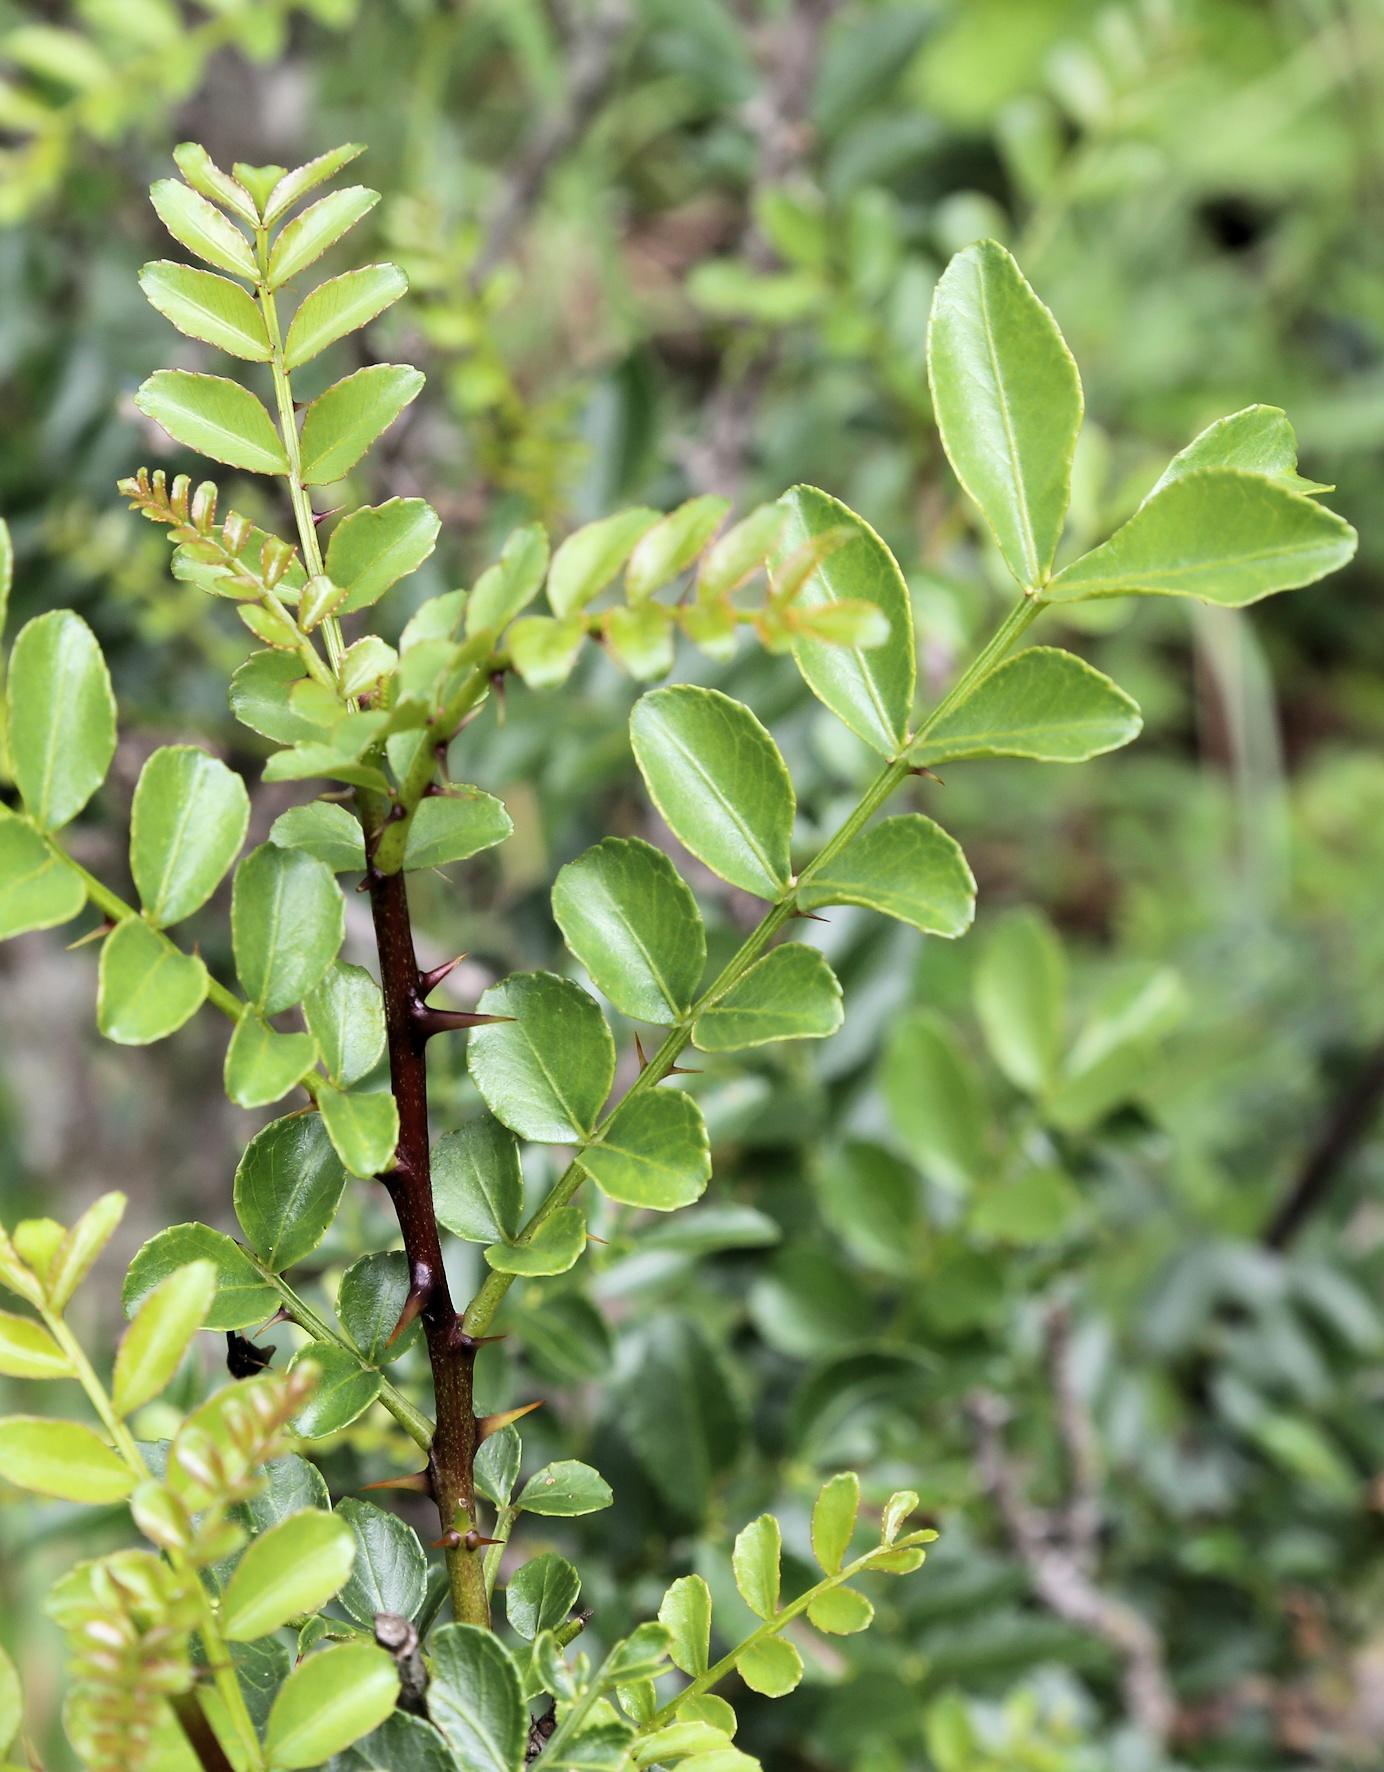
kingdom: Plantae
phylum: Tracheophyta
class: Magnoliopsida
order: Sapindales
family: Rutaceae
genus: Zanthoxylum
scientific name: Zanthoxylum capense
